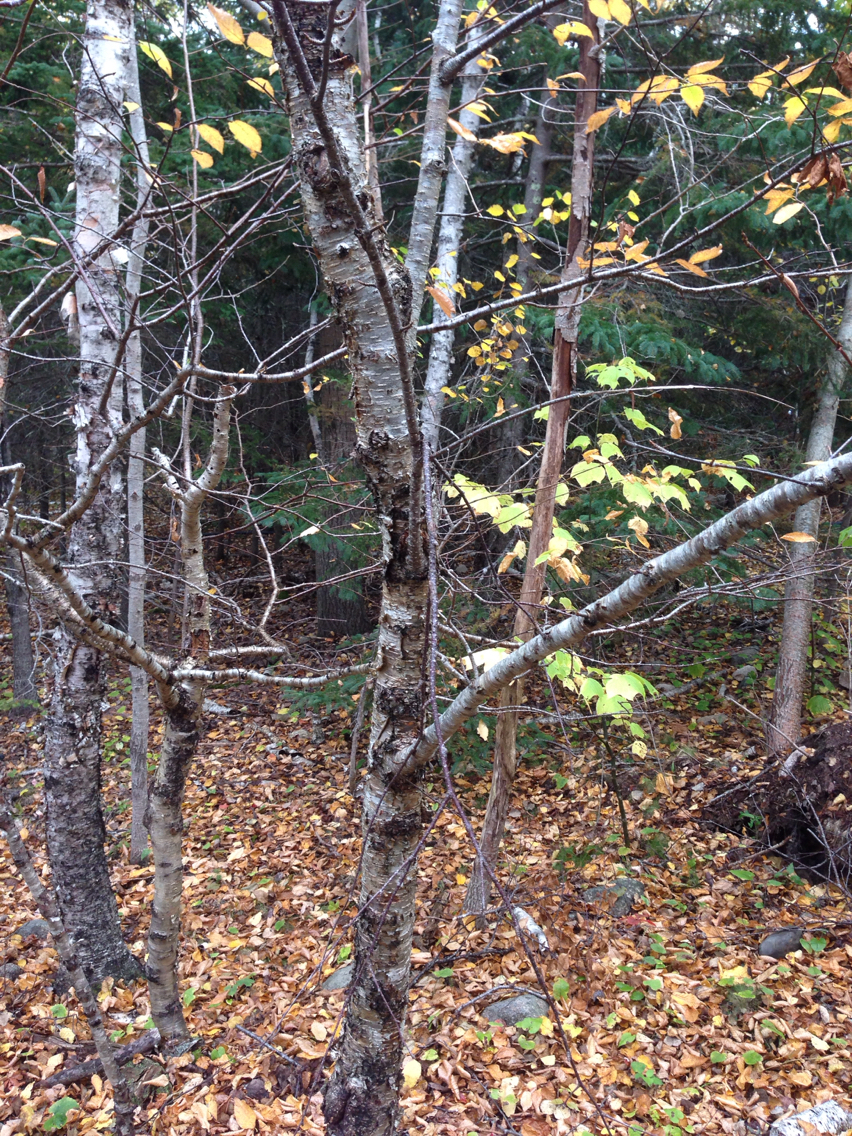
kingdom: Plantae
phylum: Tracheophyta
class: Magnoliopsida
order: Fagales
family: Betulaceae
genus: Betula
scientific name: Betula alleghaniensis
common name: Yellow birch
